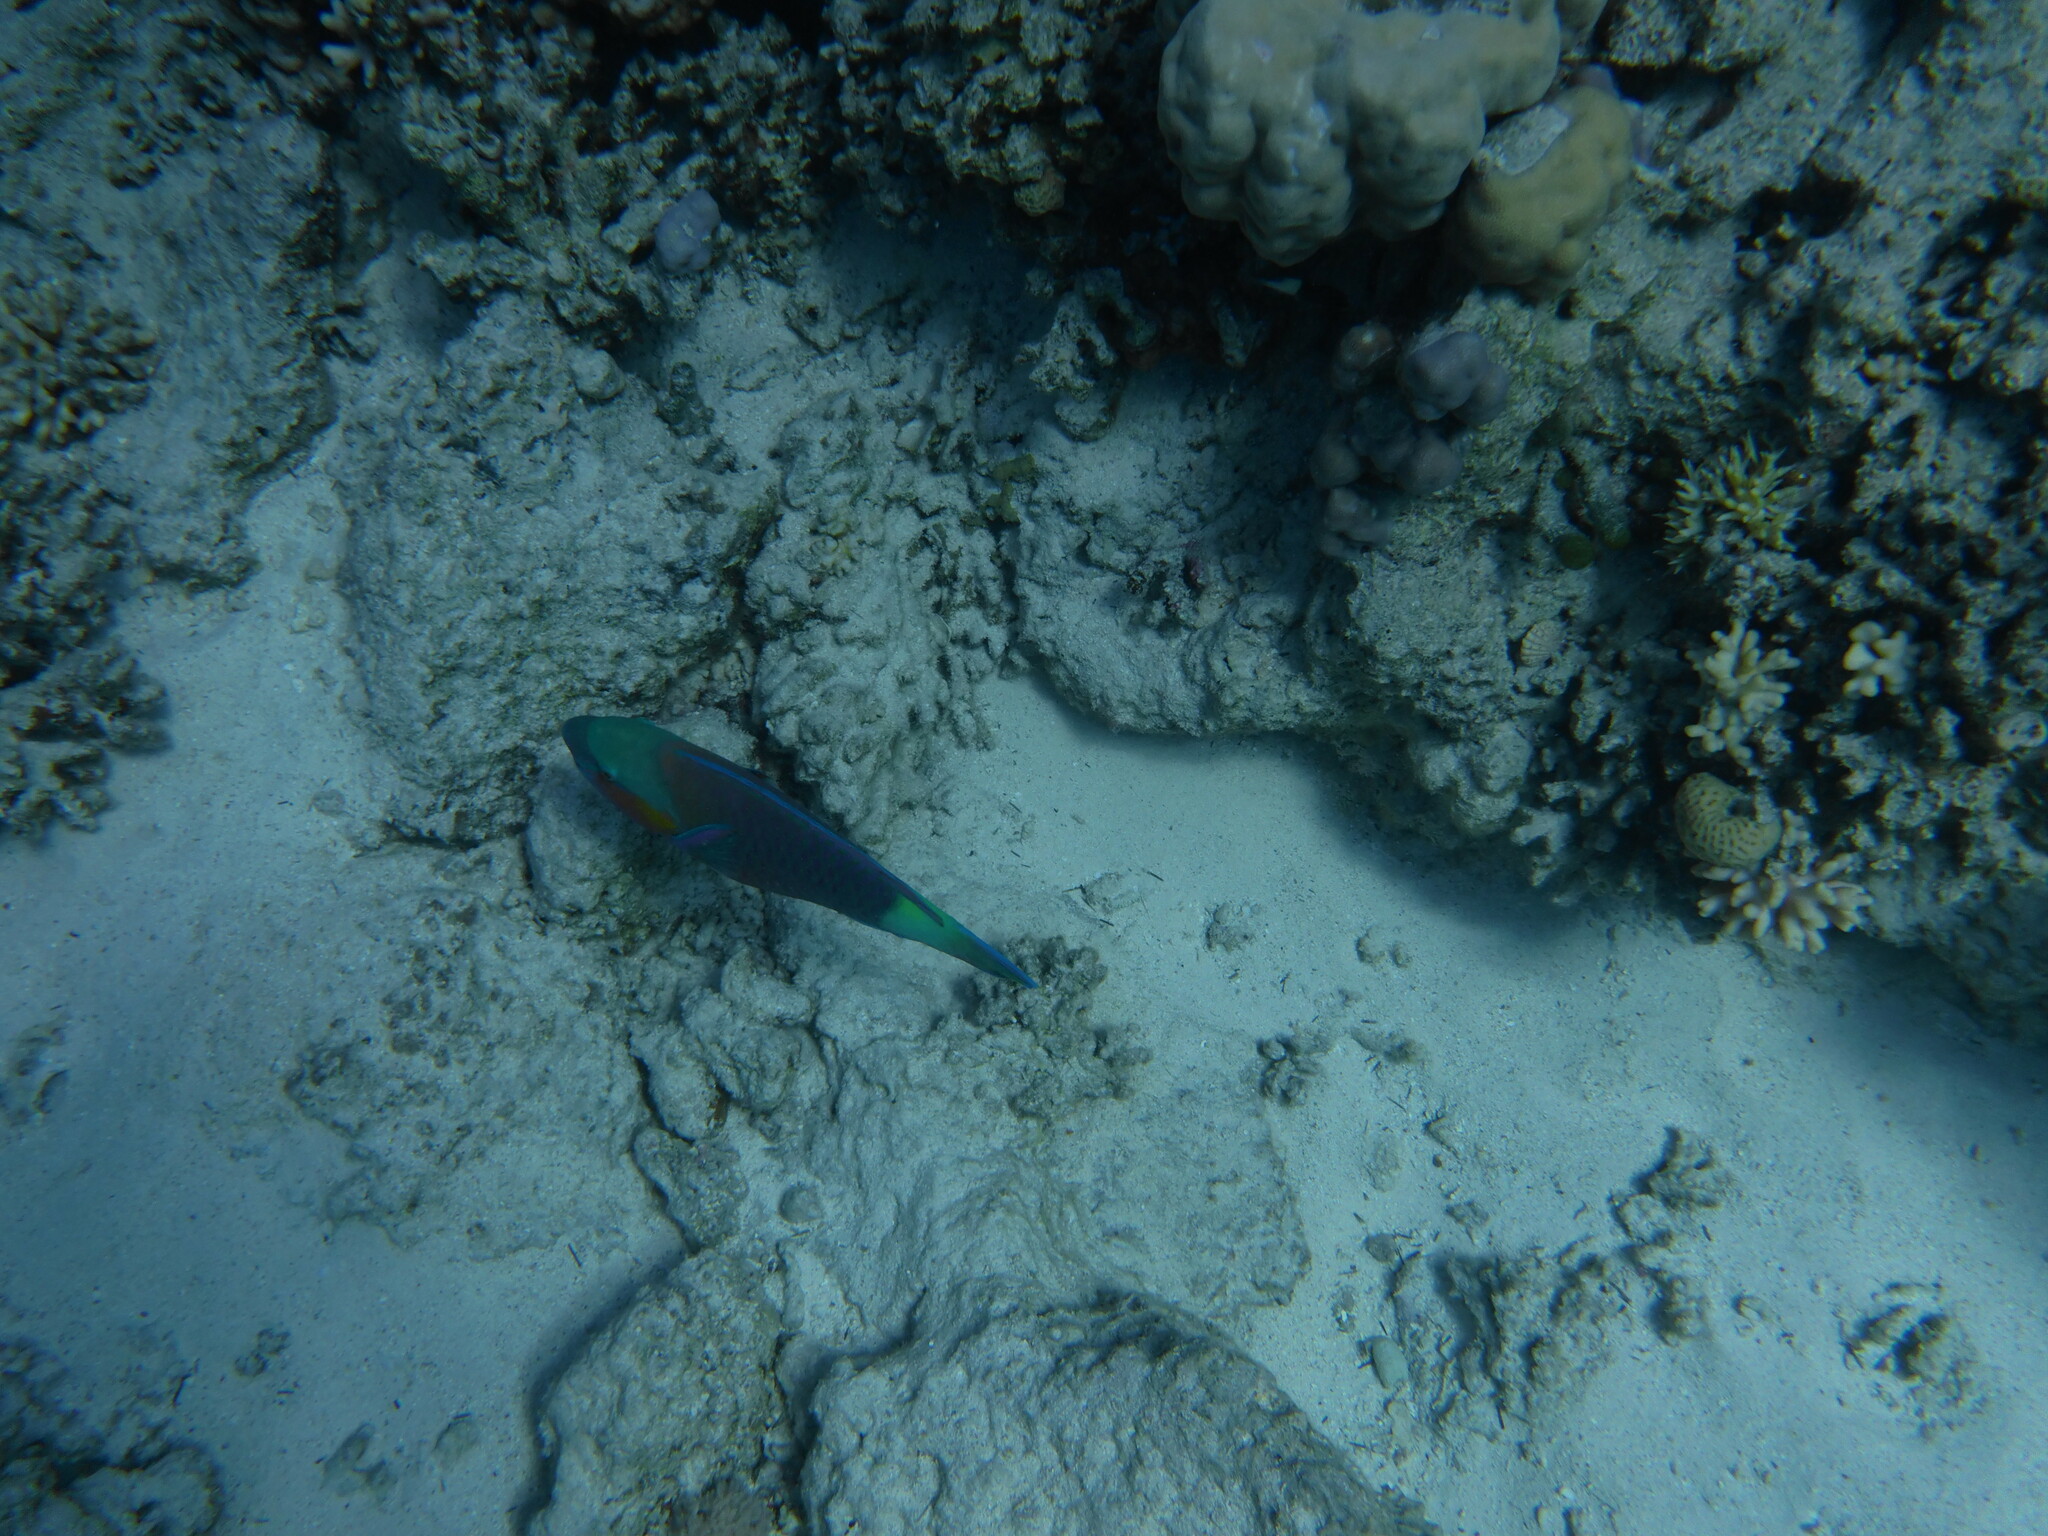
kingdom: Animalia
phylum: Chordata
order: Perciformes
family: Scaridae
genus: Chlorurus
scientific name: Chlorurus sordidus
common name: Bullethead parrotfish
